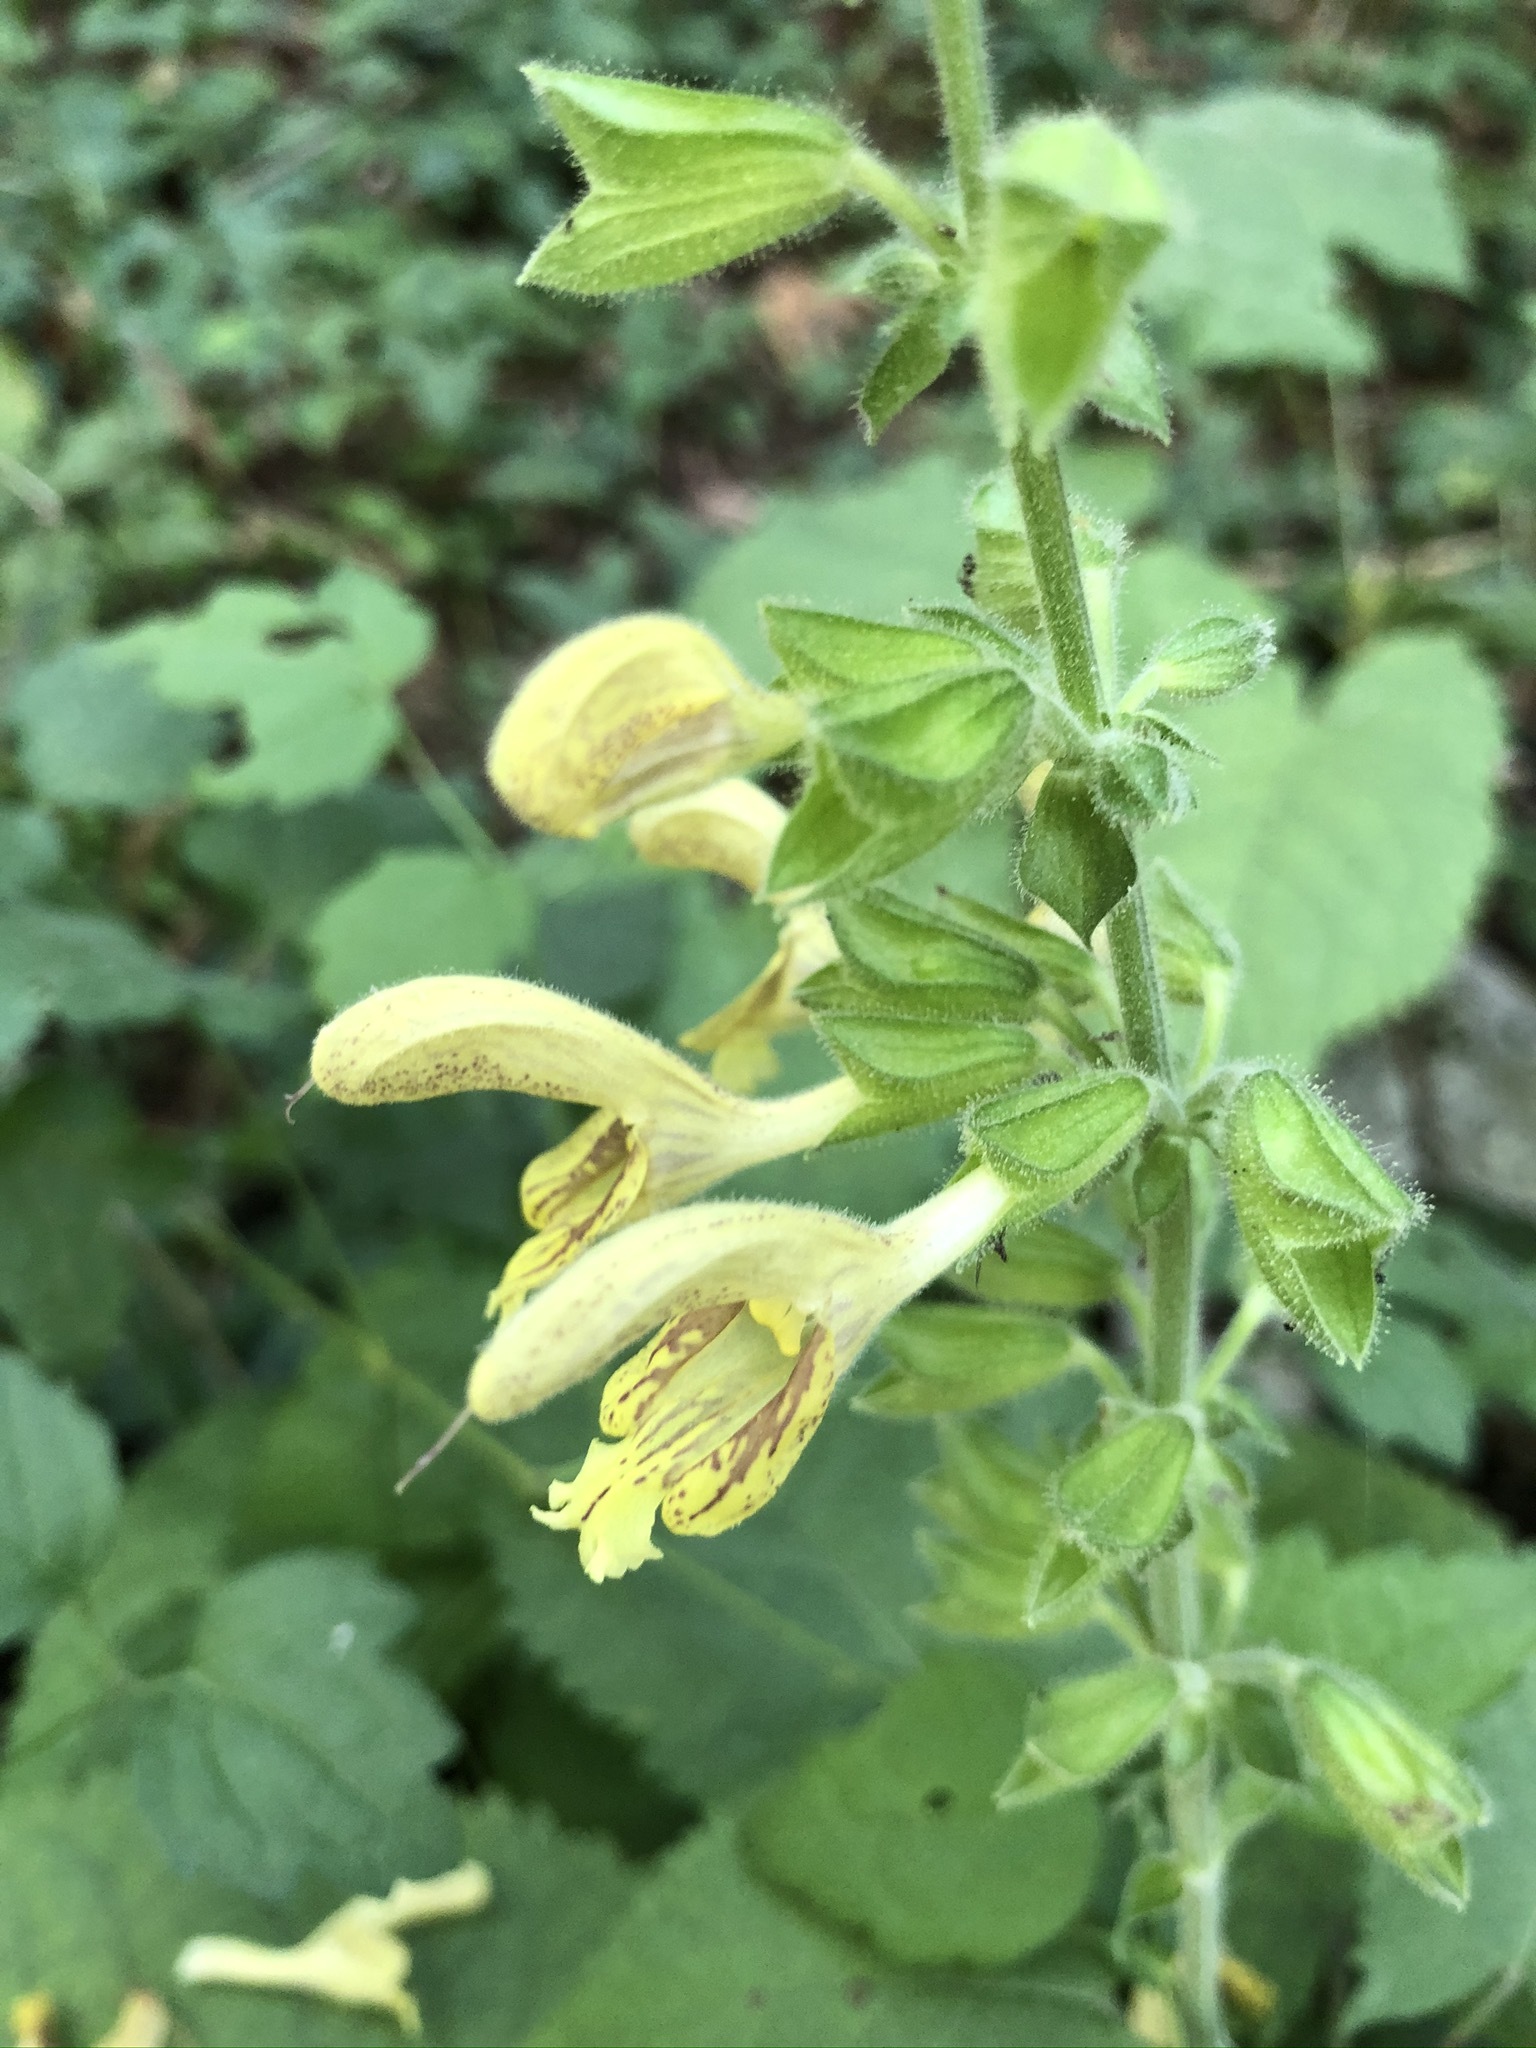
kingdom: Plantae
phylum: Tracheophyta
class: Magnoliopsida
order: Lamiales
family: Lamiaceae
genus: Salvia
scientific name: Salvia glutinosa
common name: Sticky clary
